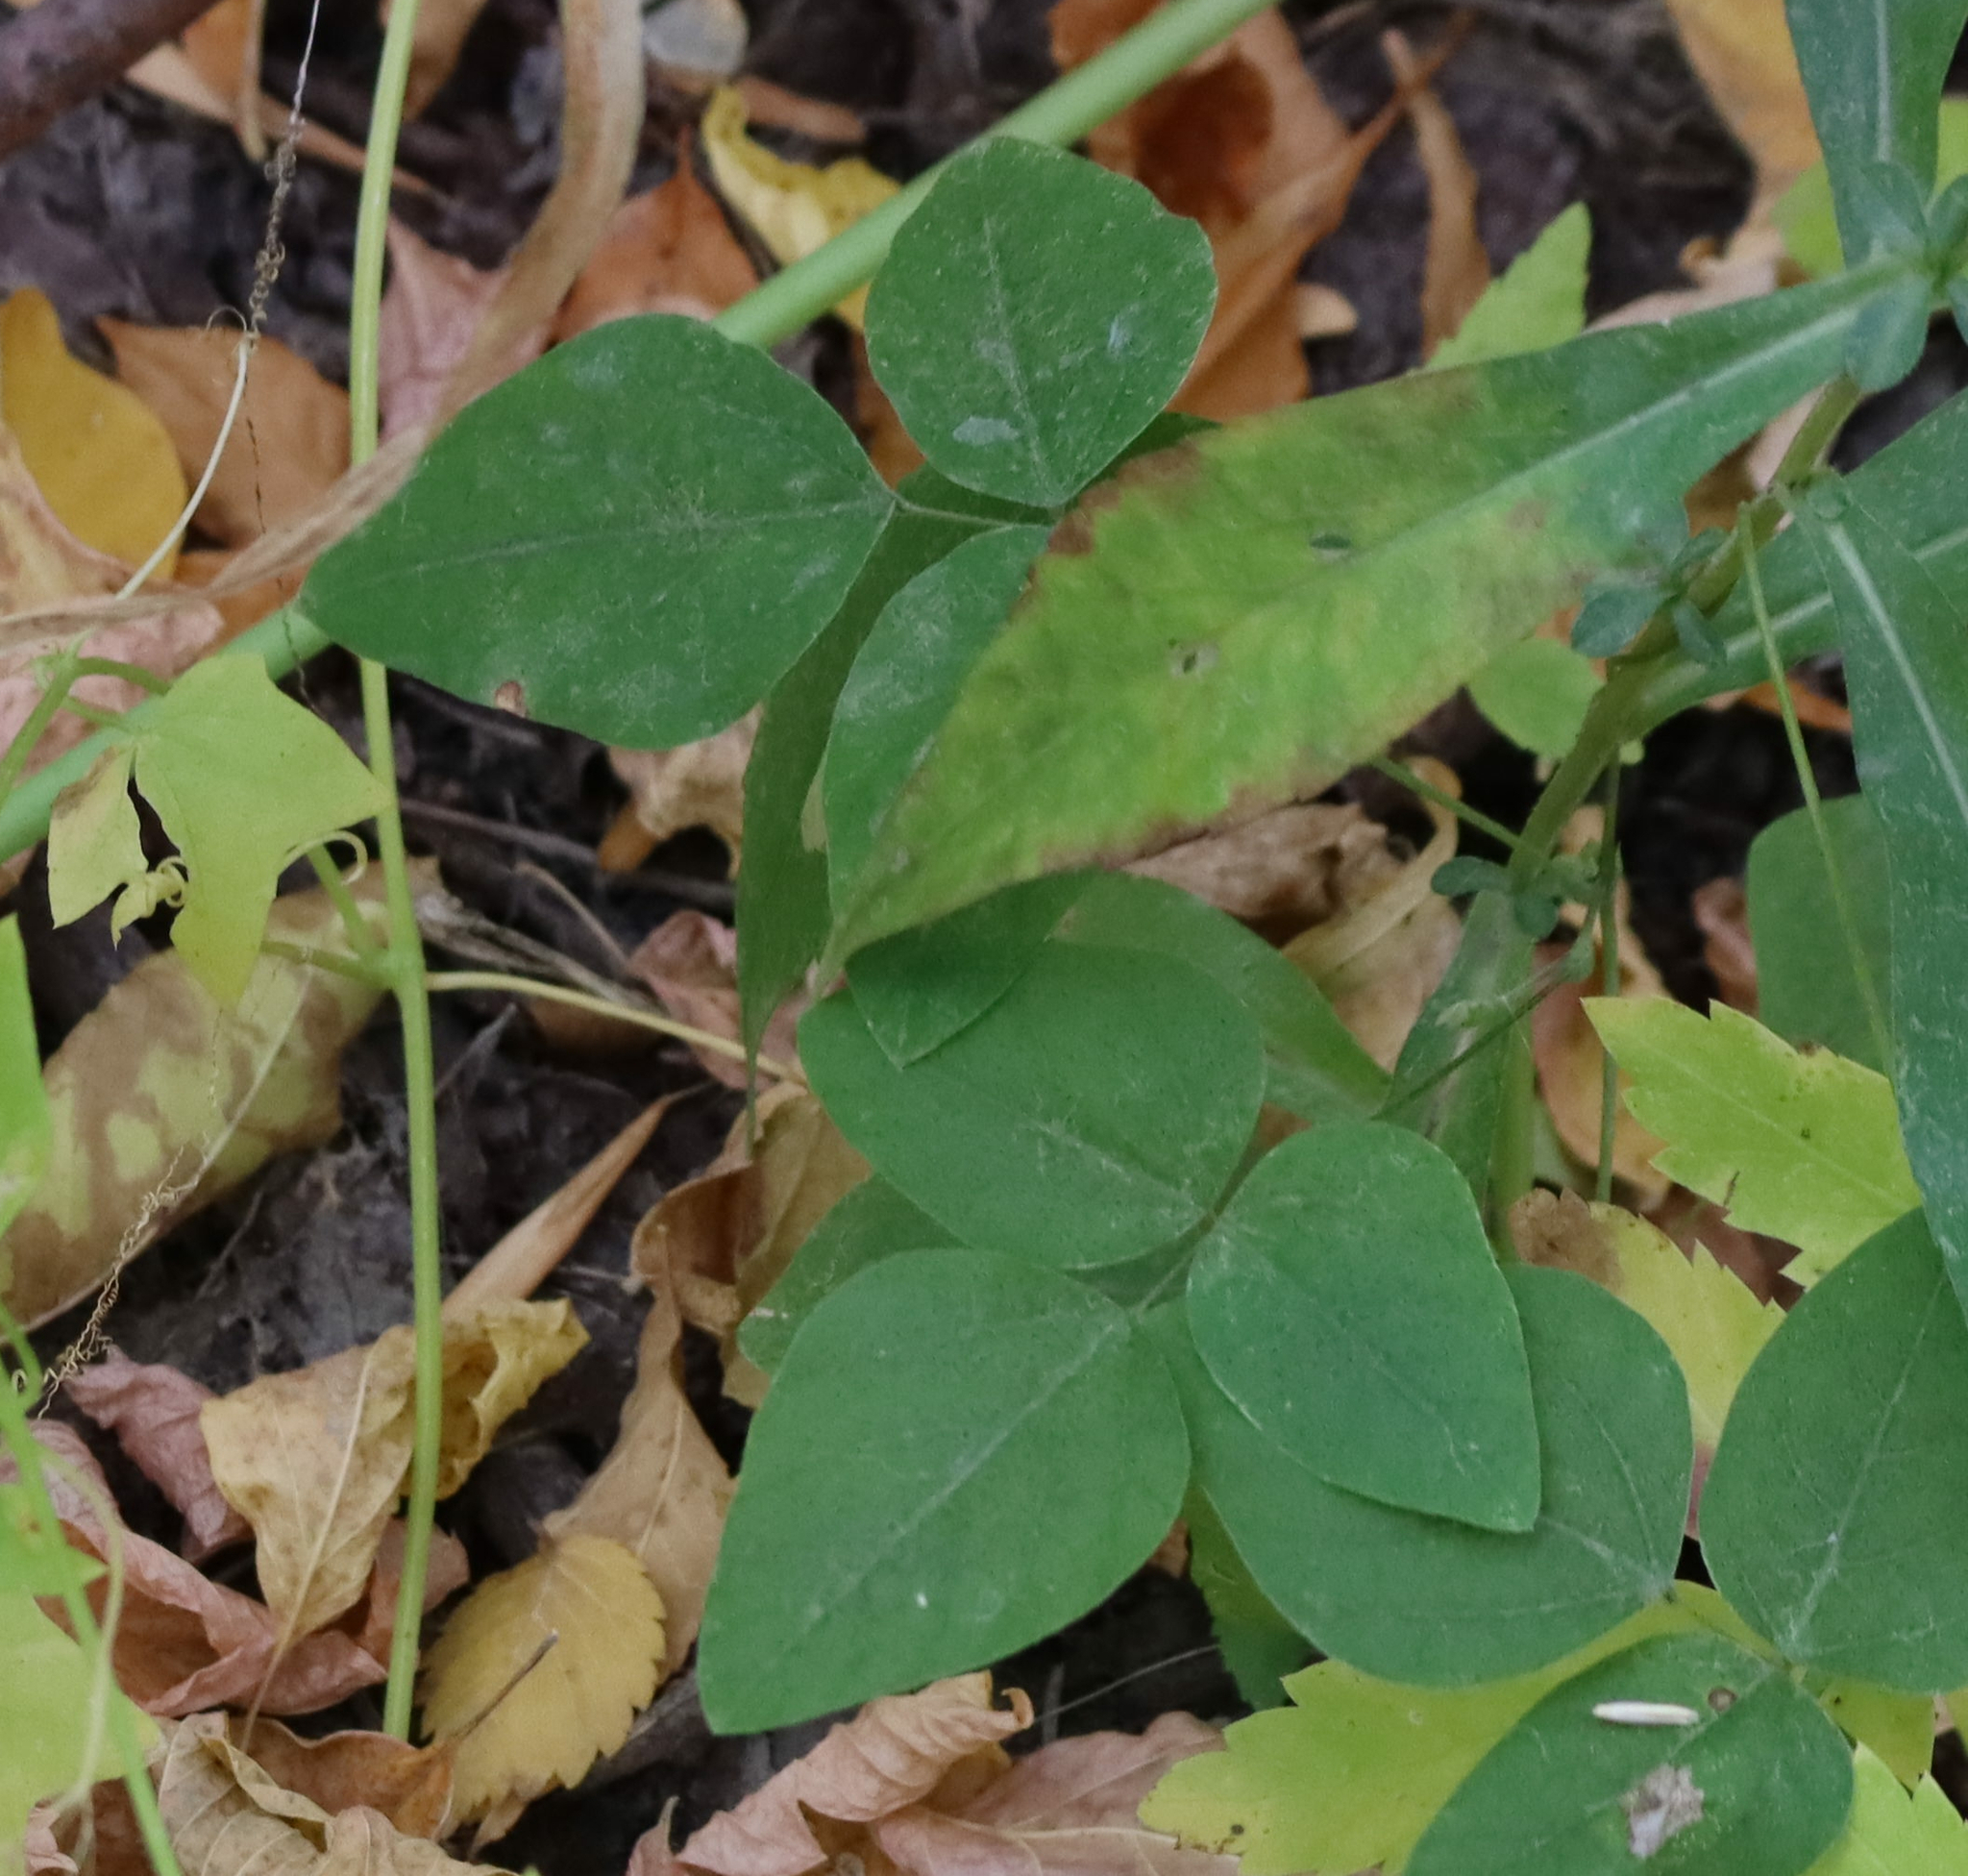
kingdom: Plantae
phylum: Tracheophyta
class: Magnoliopsida
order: Fabales
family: Fabaceae
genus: Amphicarpaea
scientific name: Amphicarpaea bracteata
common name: American hog peanut
